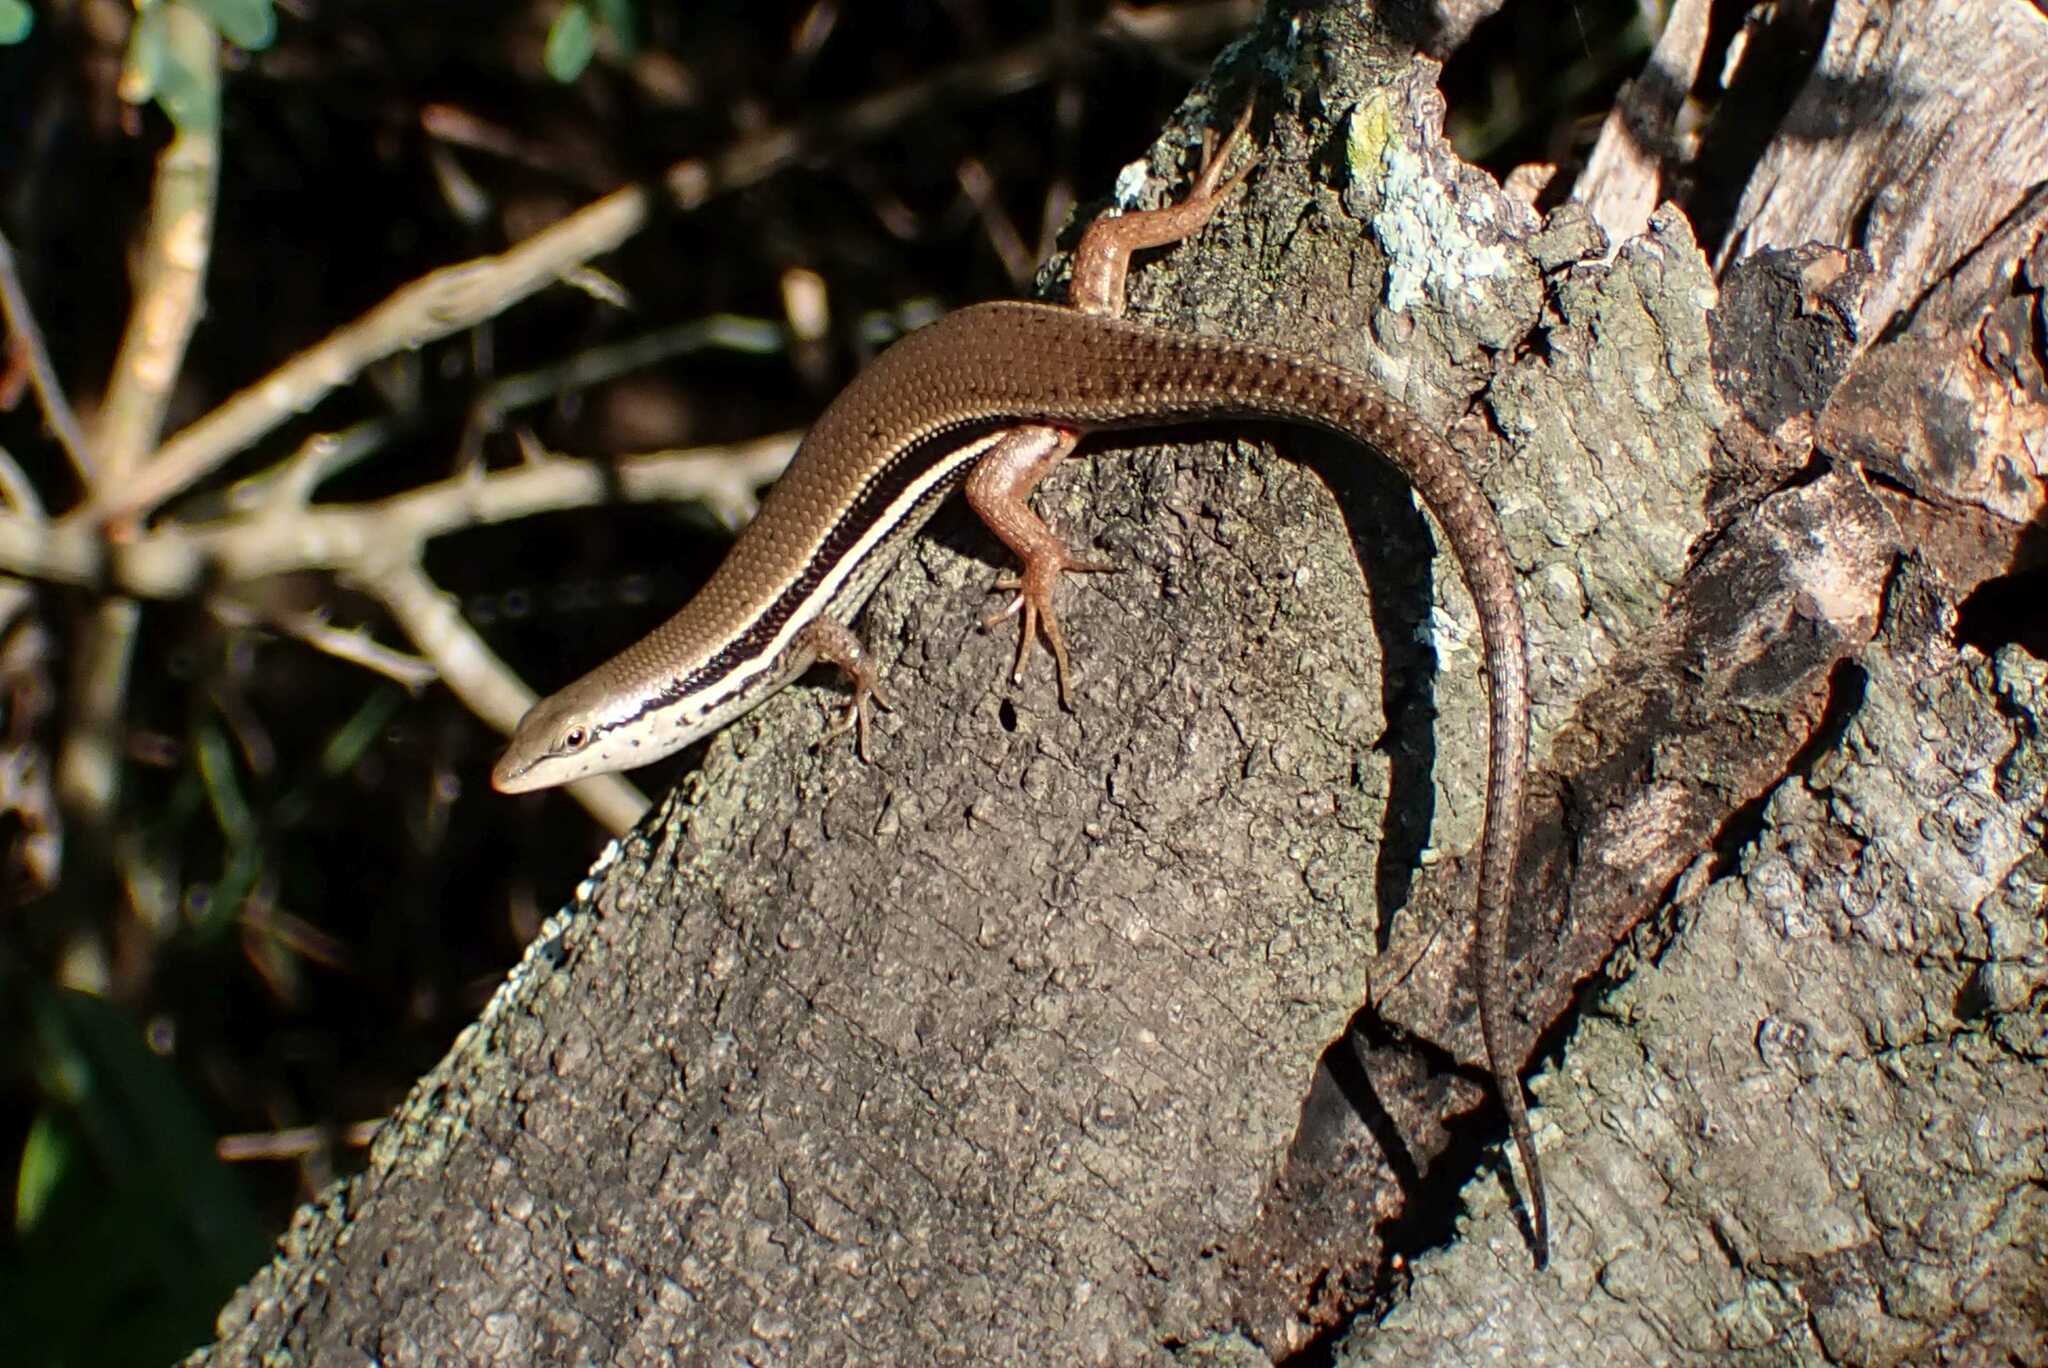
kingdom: Animalia
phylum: Chordata
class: Squamata
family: Scincidae
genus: Trachylepis
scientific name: Trachylepis depressa
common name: Eastern coastal skink
